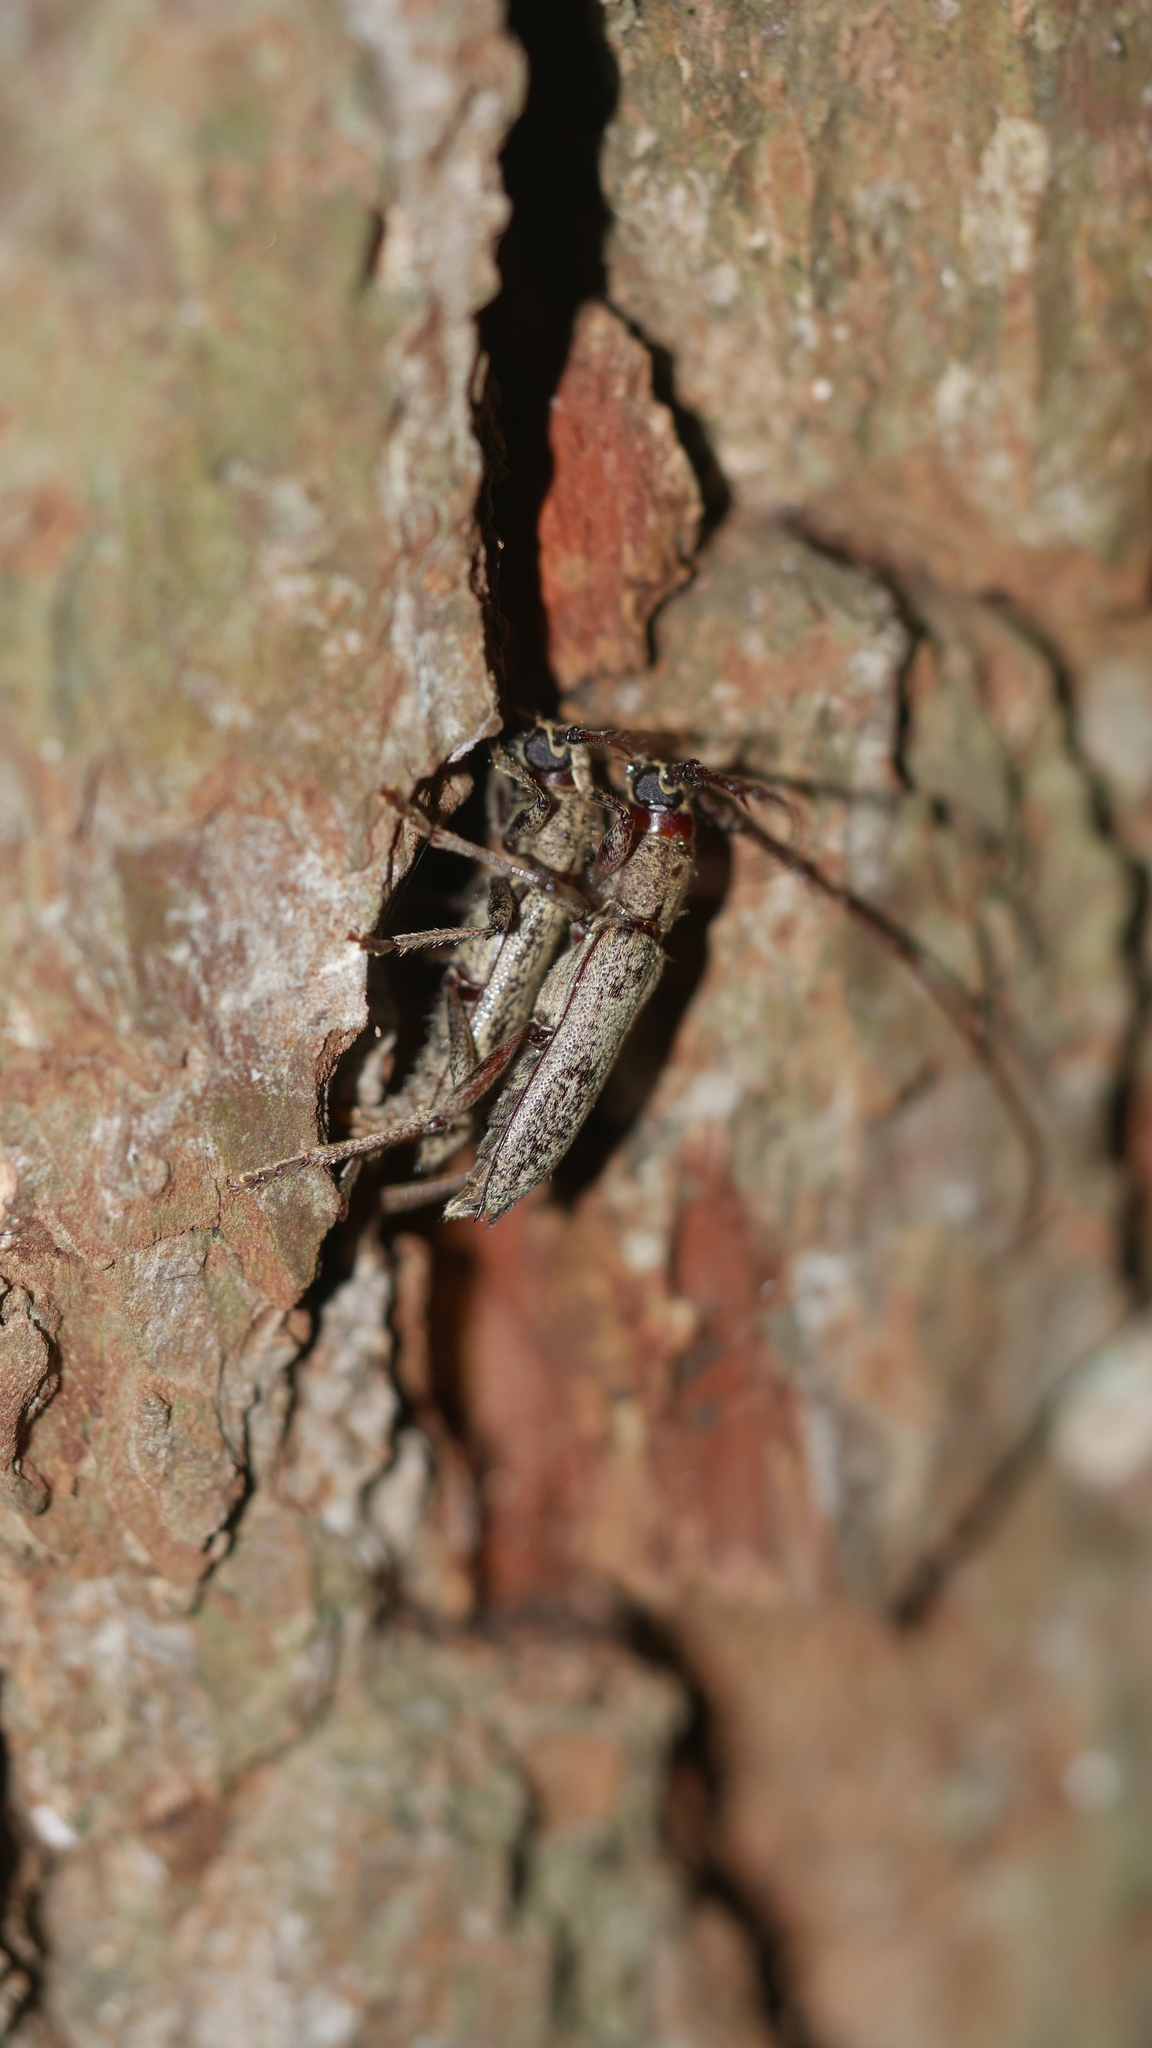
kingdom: Animalia
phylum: Arthropoda
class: Insecta
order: Coleoptera
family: Cerambycidae
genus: Elaphidion
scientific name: Elaphidion mucronatum
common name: Spined oak borer
